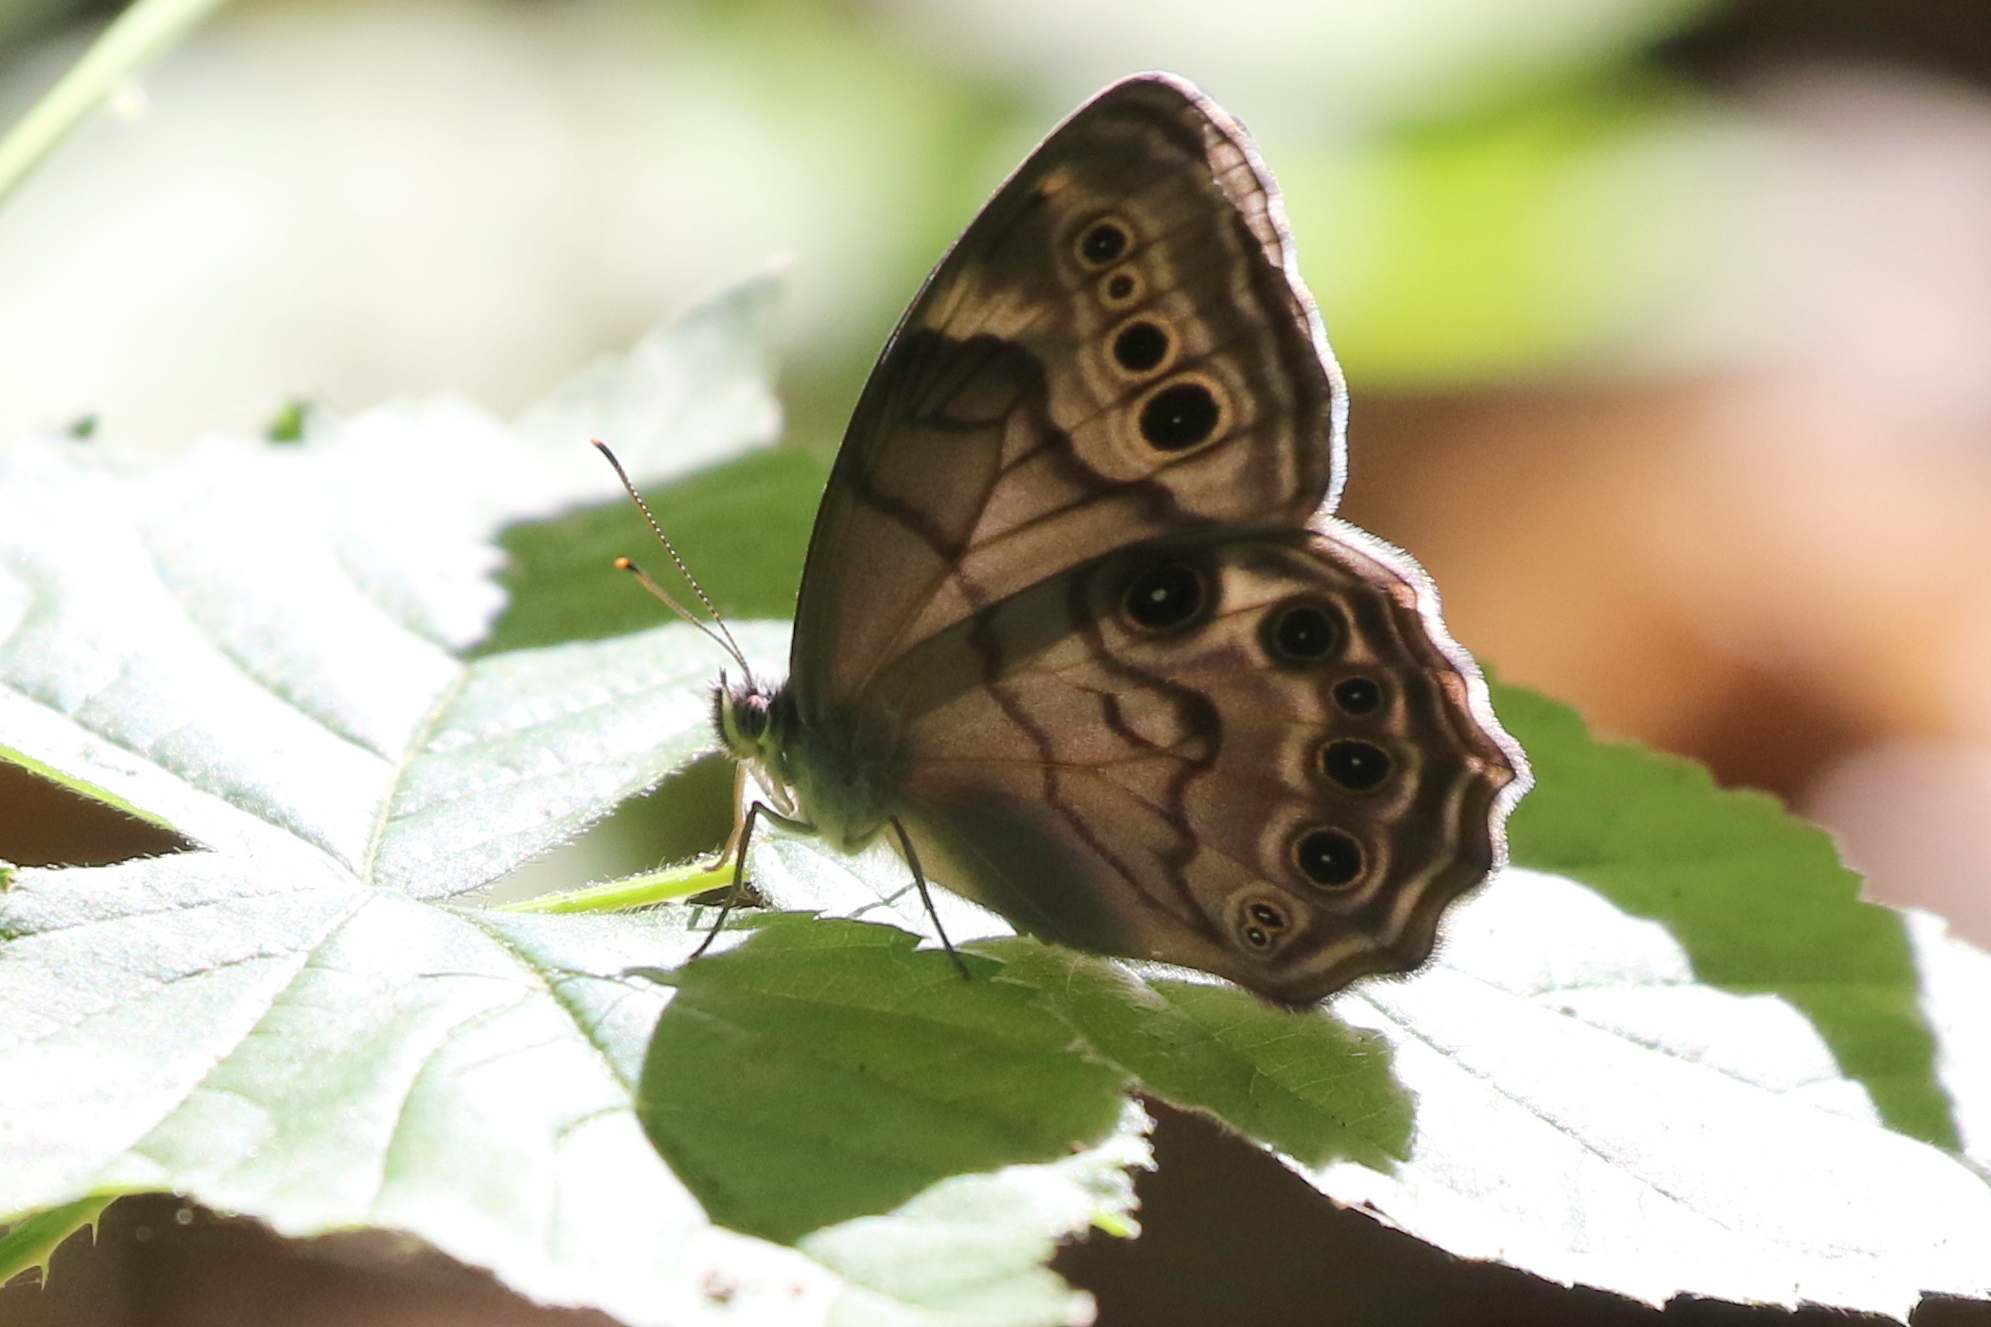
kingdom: Animalia
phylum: Arthropoda
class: Insecta
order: Lepidoptera
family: Nymphalidae
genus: Lethe
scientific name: Lethe anthedon
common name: Northern pearly-eye
